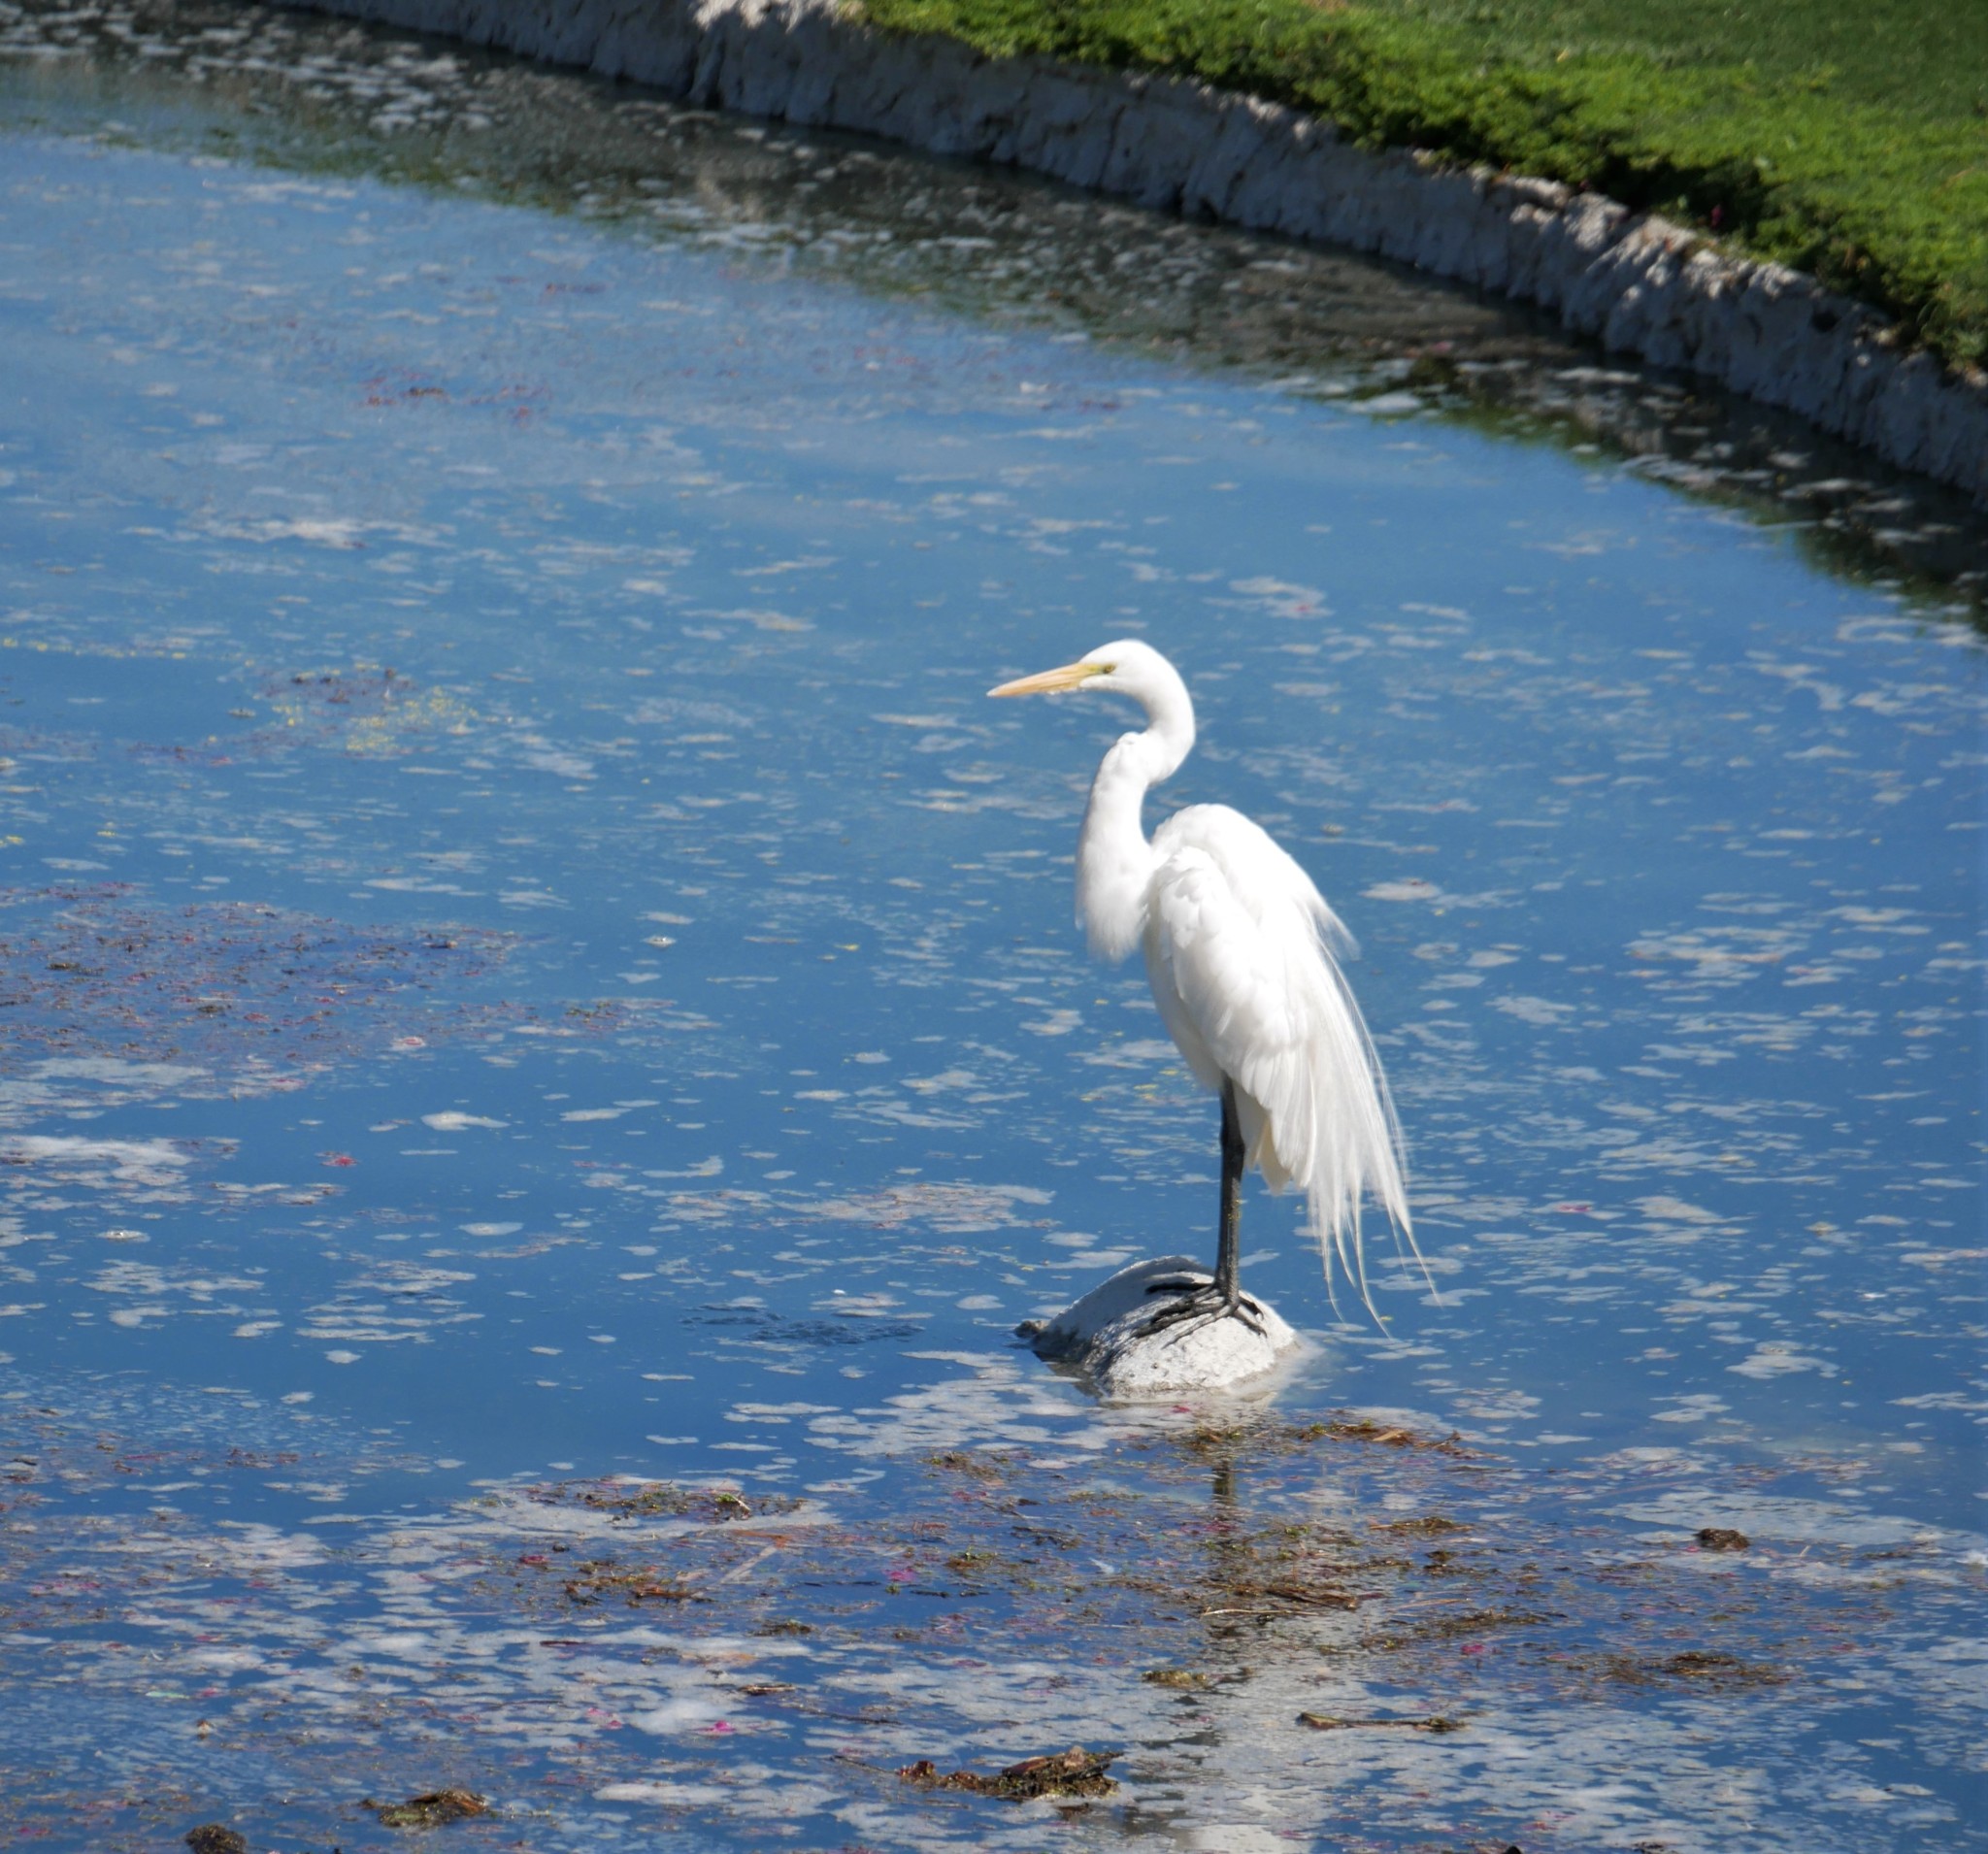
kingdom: Animalia
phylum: Chordata
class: Aves
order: Pelecaniformes
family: Ardeidae
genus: Ardea
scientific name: Ardea alba
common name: Great egret
